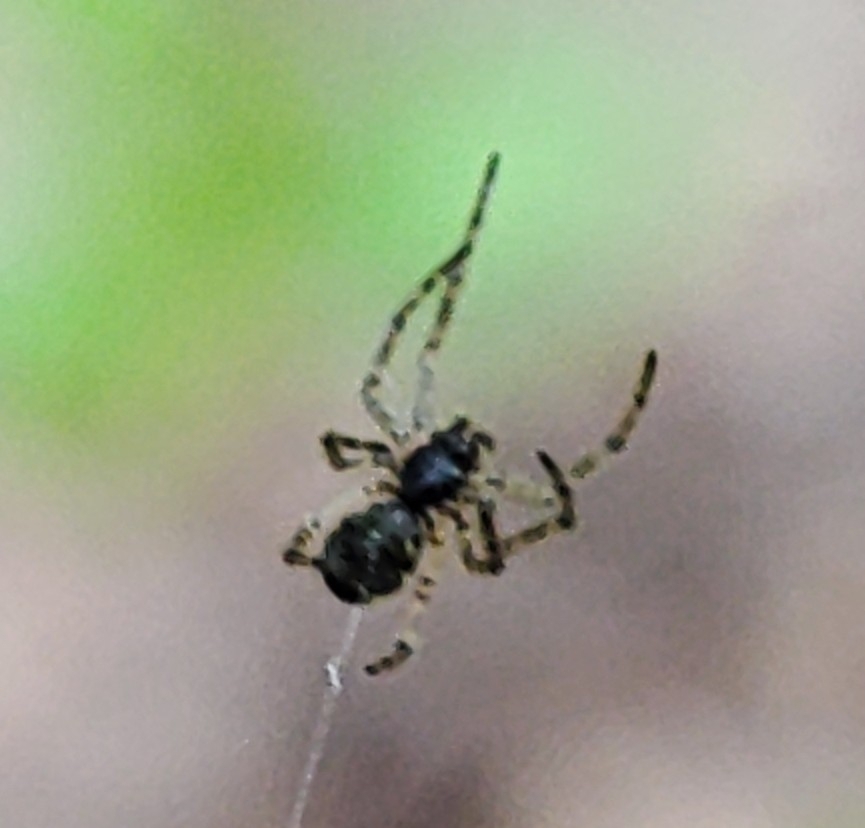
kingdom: Animalia
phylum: Arthropoda
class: Arachnida
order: Araneae
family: Araneidae
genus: Cyclosa
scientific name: Cyclosa conica
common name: Conical trashline orbweaver
